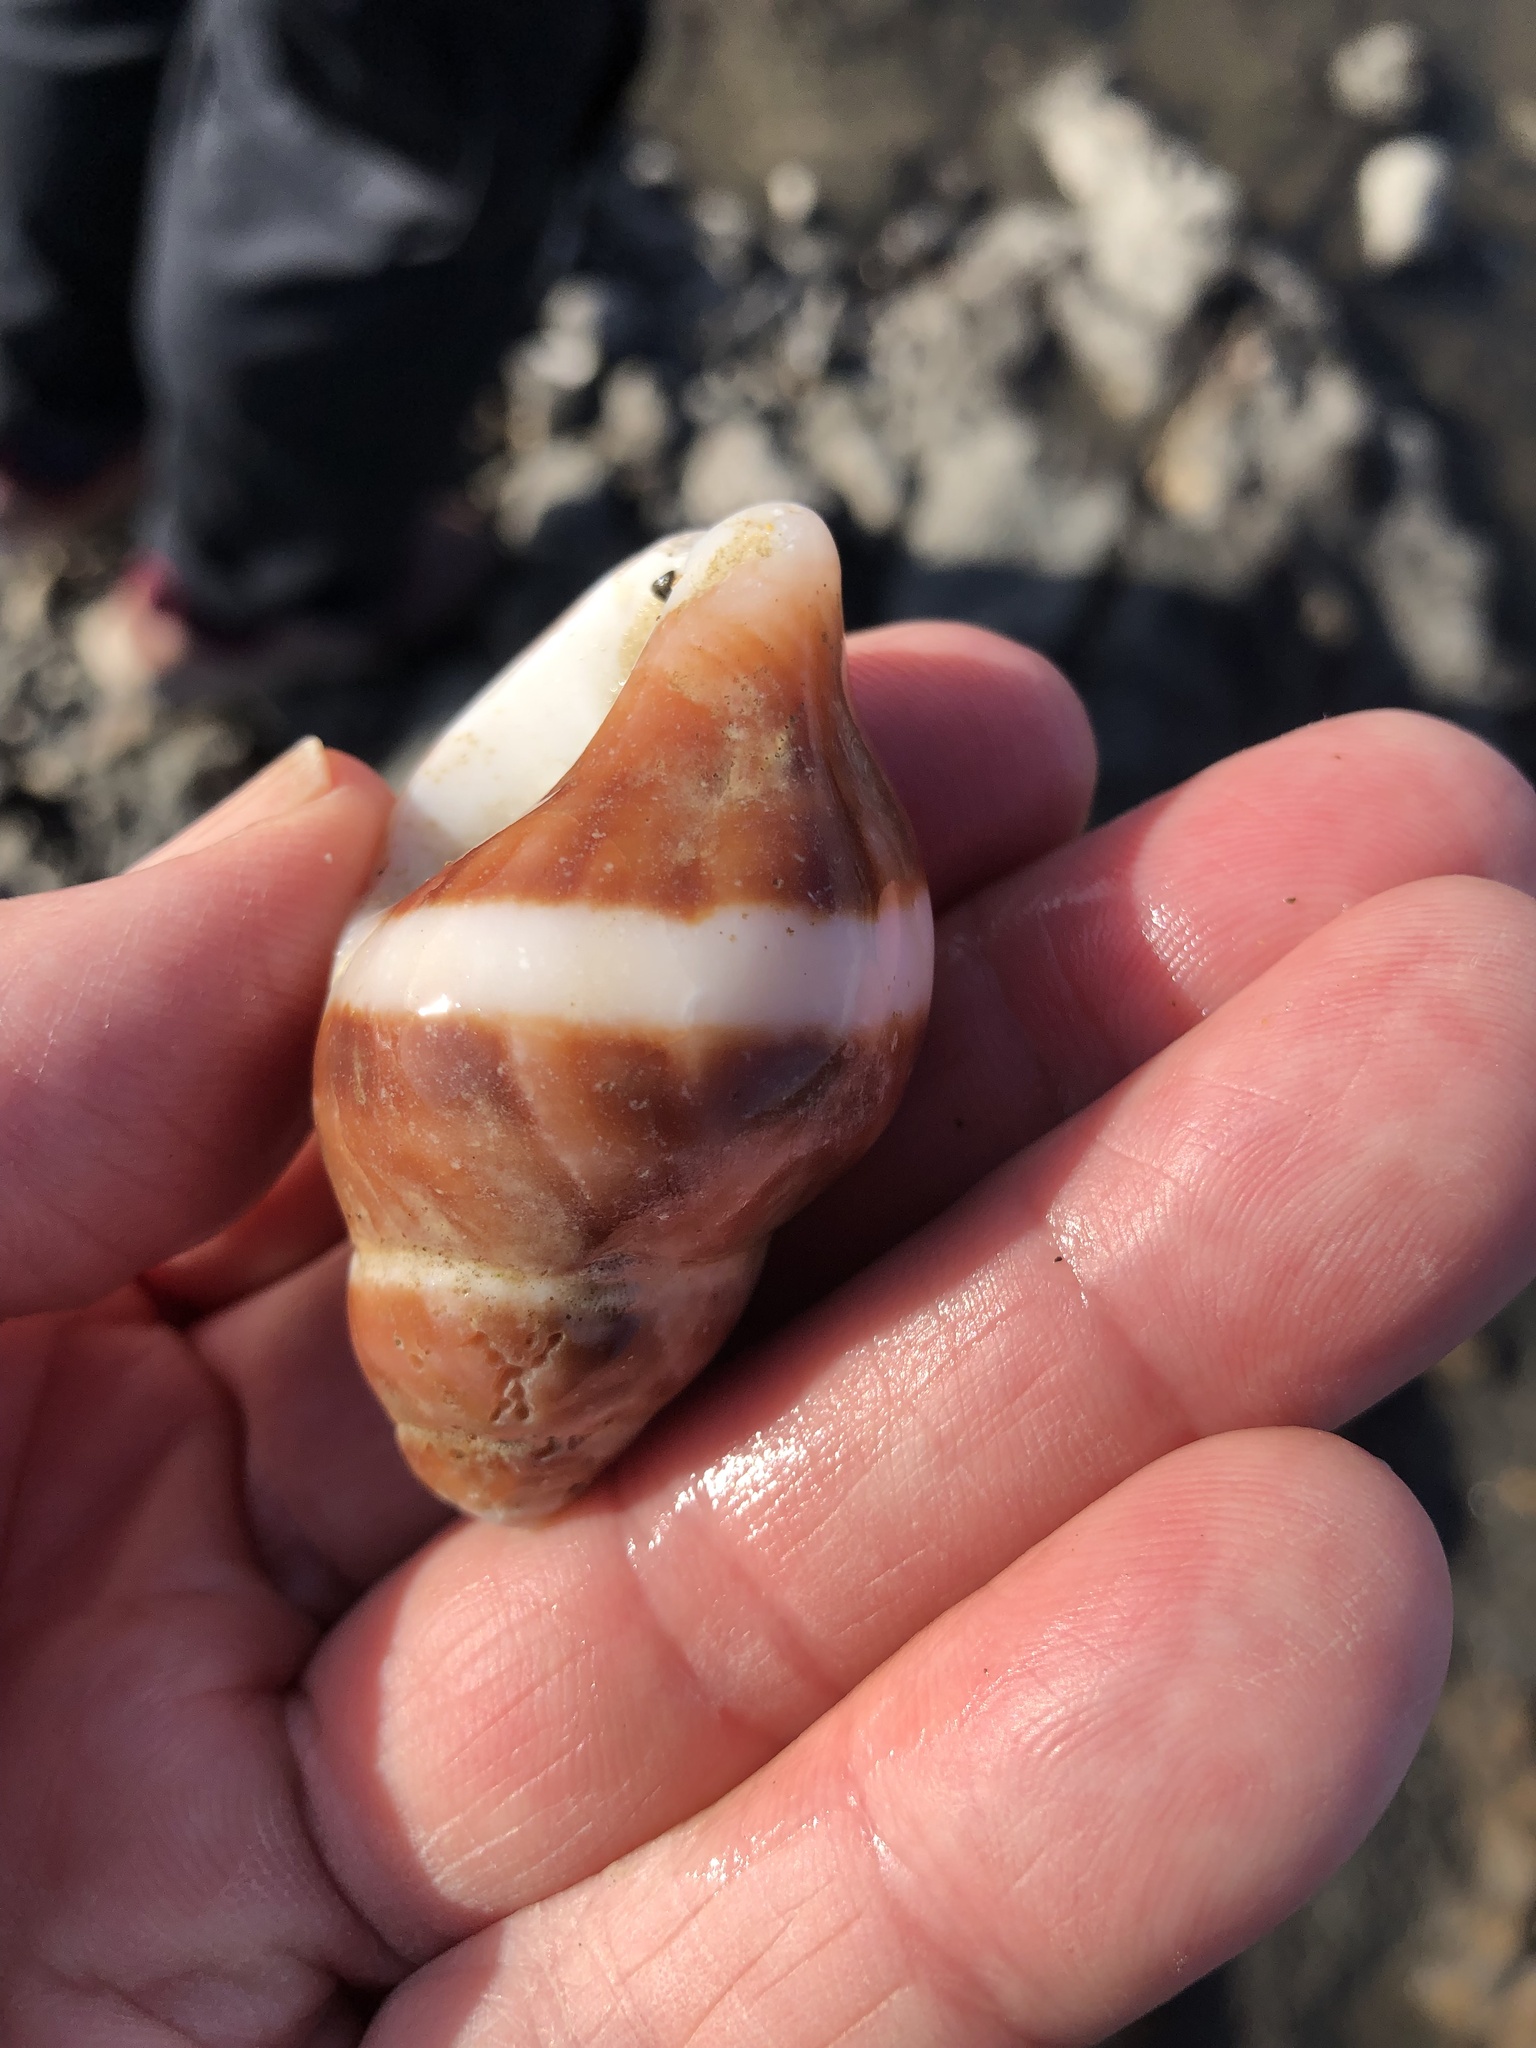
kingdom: Animalia
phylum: Mollusca
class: Gastropoda
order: Neogastropoda
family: Muricidae
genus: Nucella
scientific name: Nucella lamellosa
